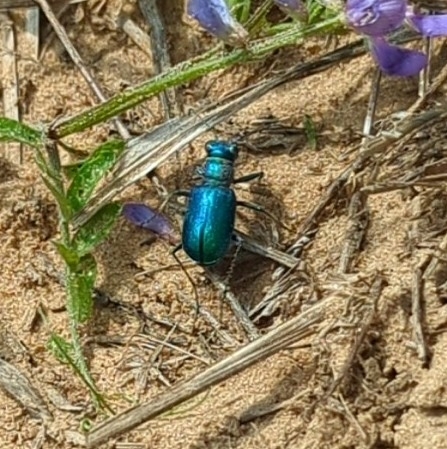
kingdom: Animalia
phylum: Arthropoda
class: Insecta
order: Coleoptera
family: Carabidae
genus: Cicindela
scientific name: Cicindela scutellaris
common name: Festive tiger beetle
